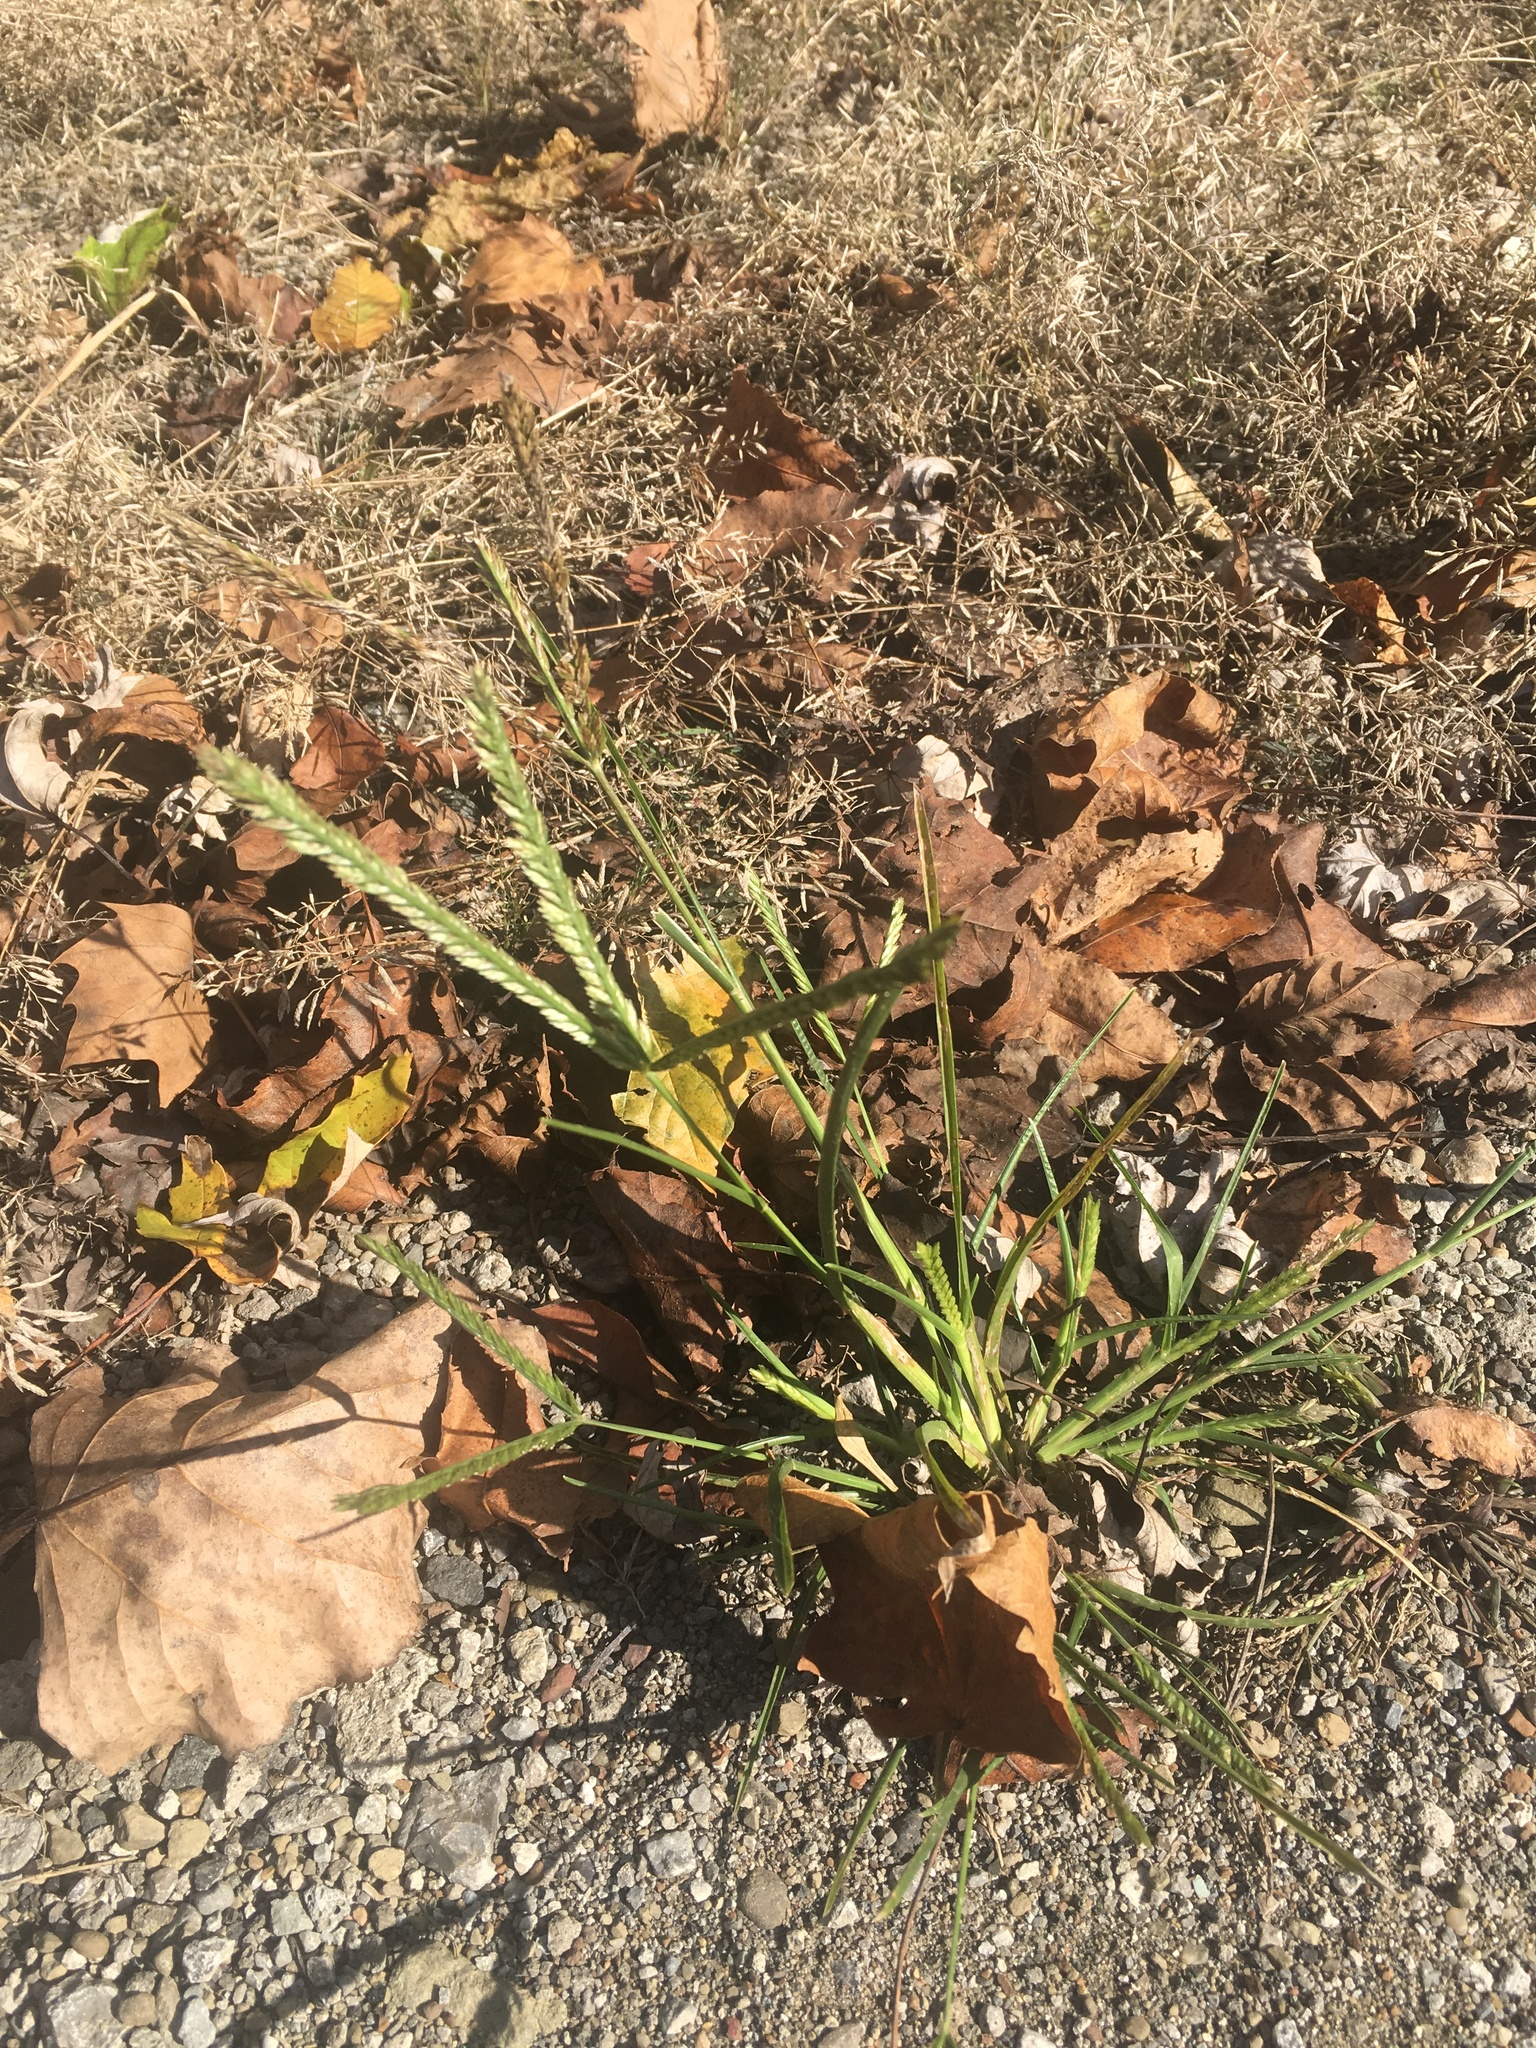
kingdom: Plantae
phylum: Tracheophyta
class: Liliopsida
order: Poales
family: Poaceae
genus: Eleusine
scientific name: Eleusine indica
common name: Yard-grass
